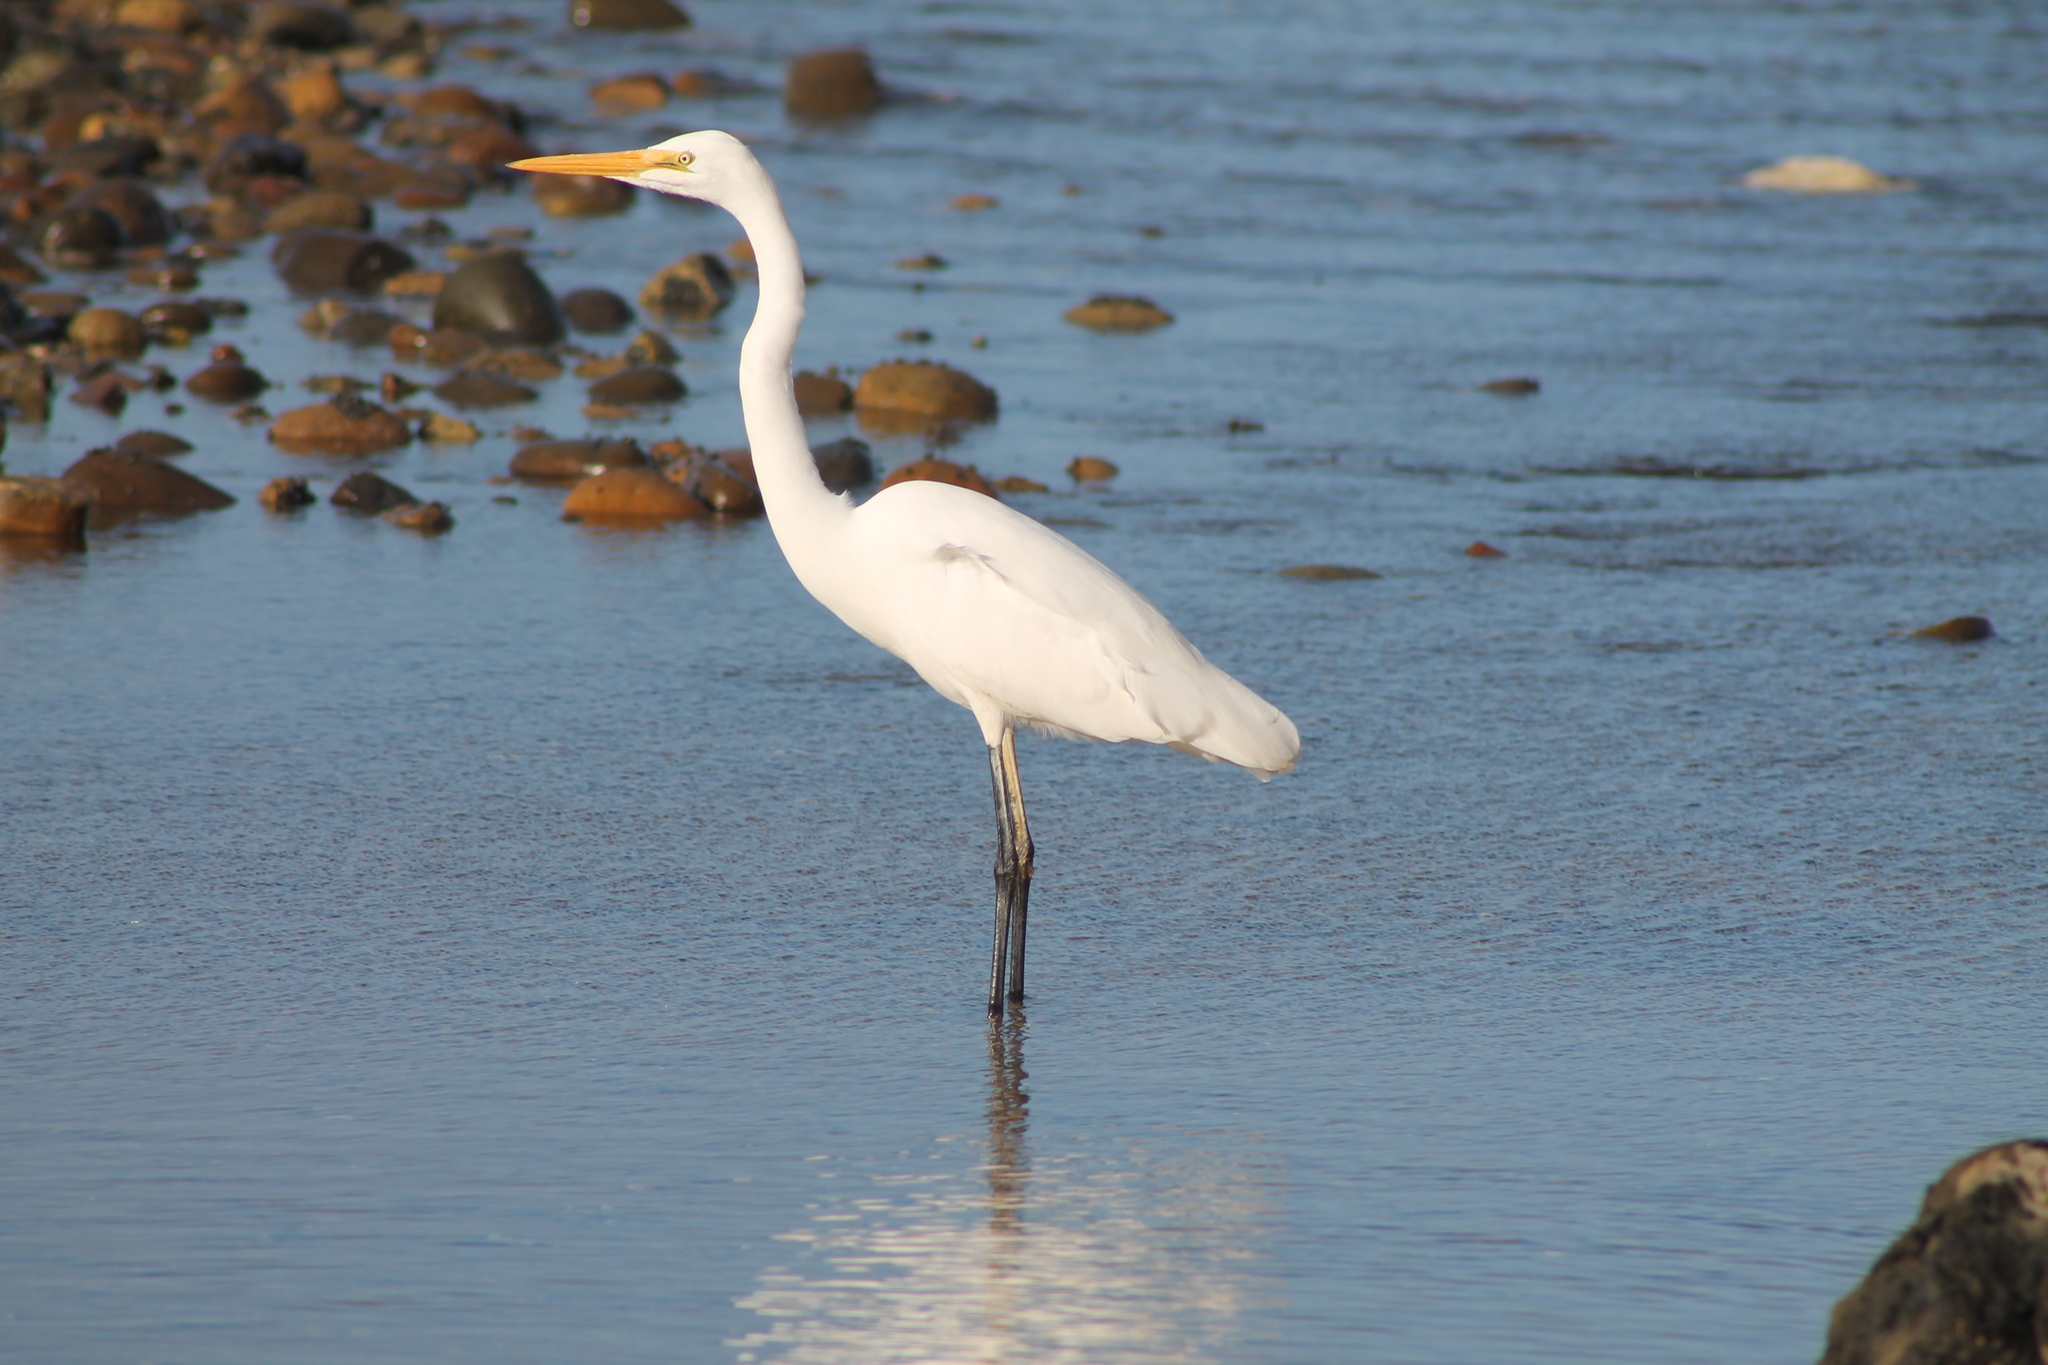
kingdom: Animalia
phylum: Chordata
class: Aves
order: Pelecaniformes
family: Ardeidae
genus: Ardea
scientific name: Ardea modesta
